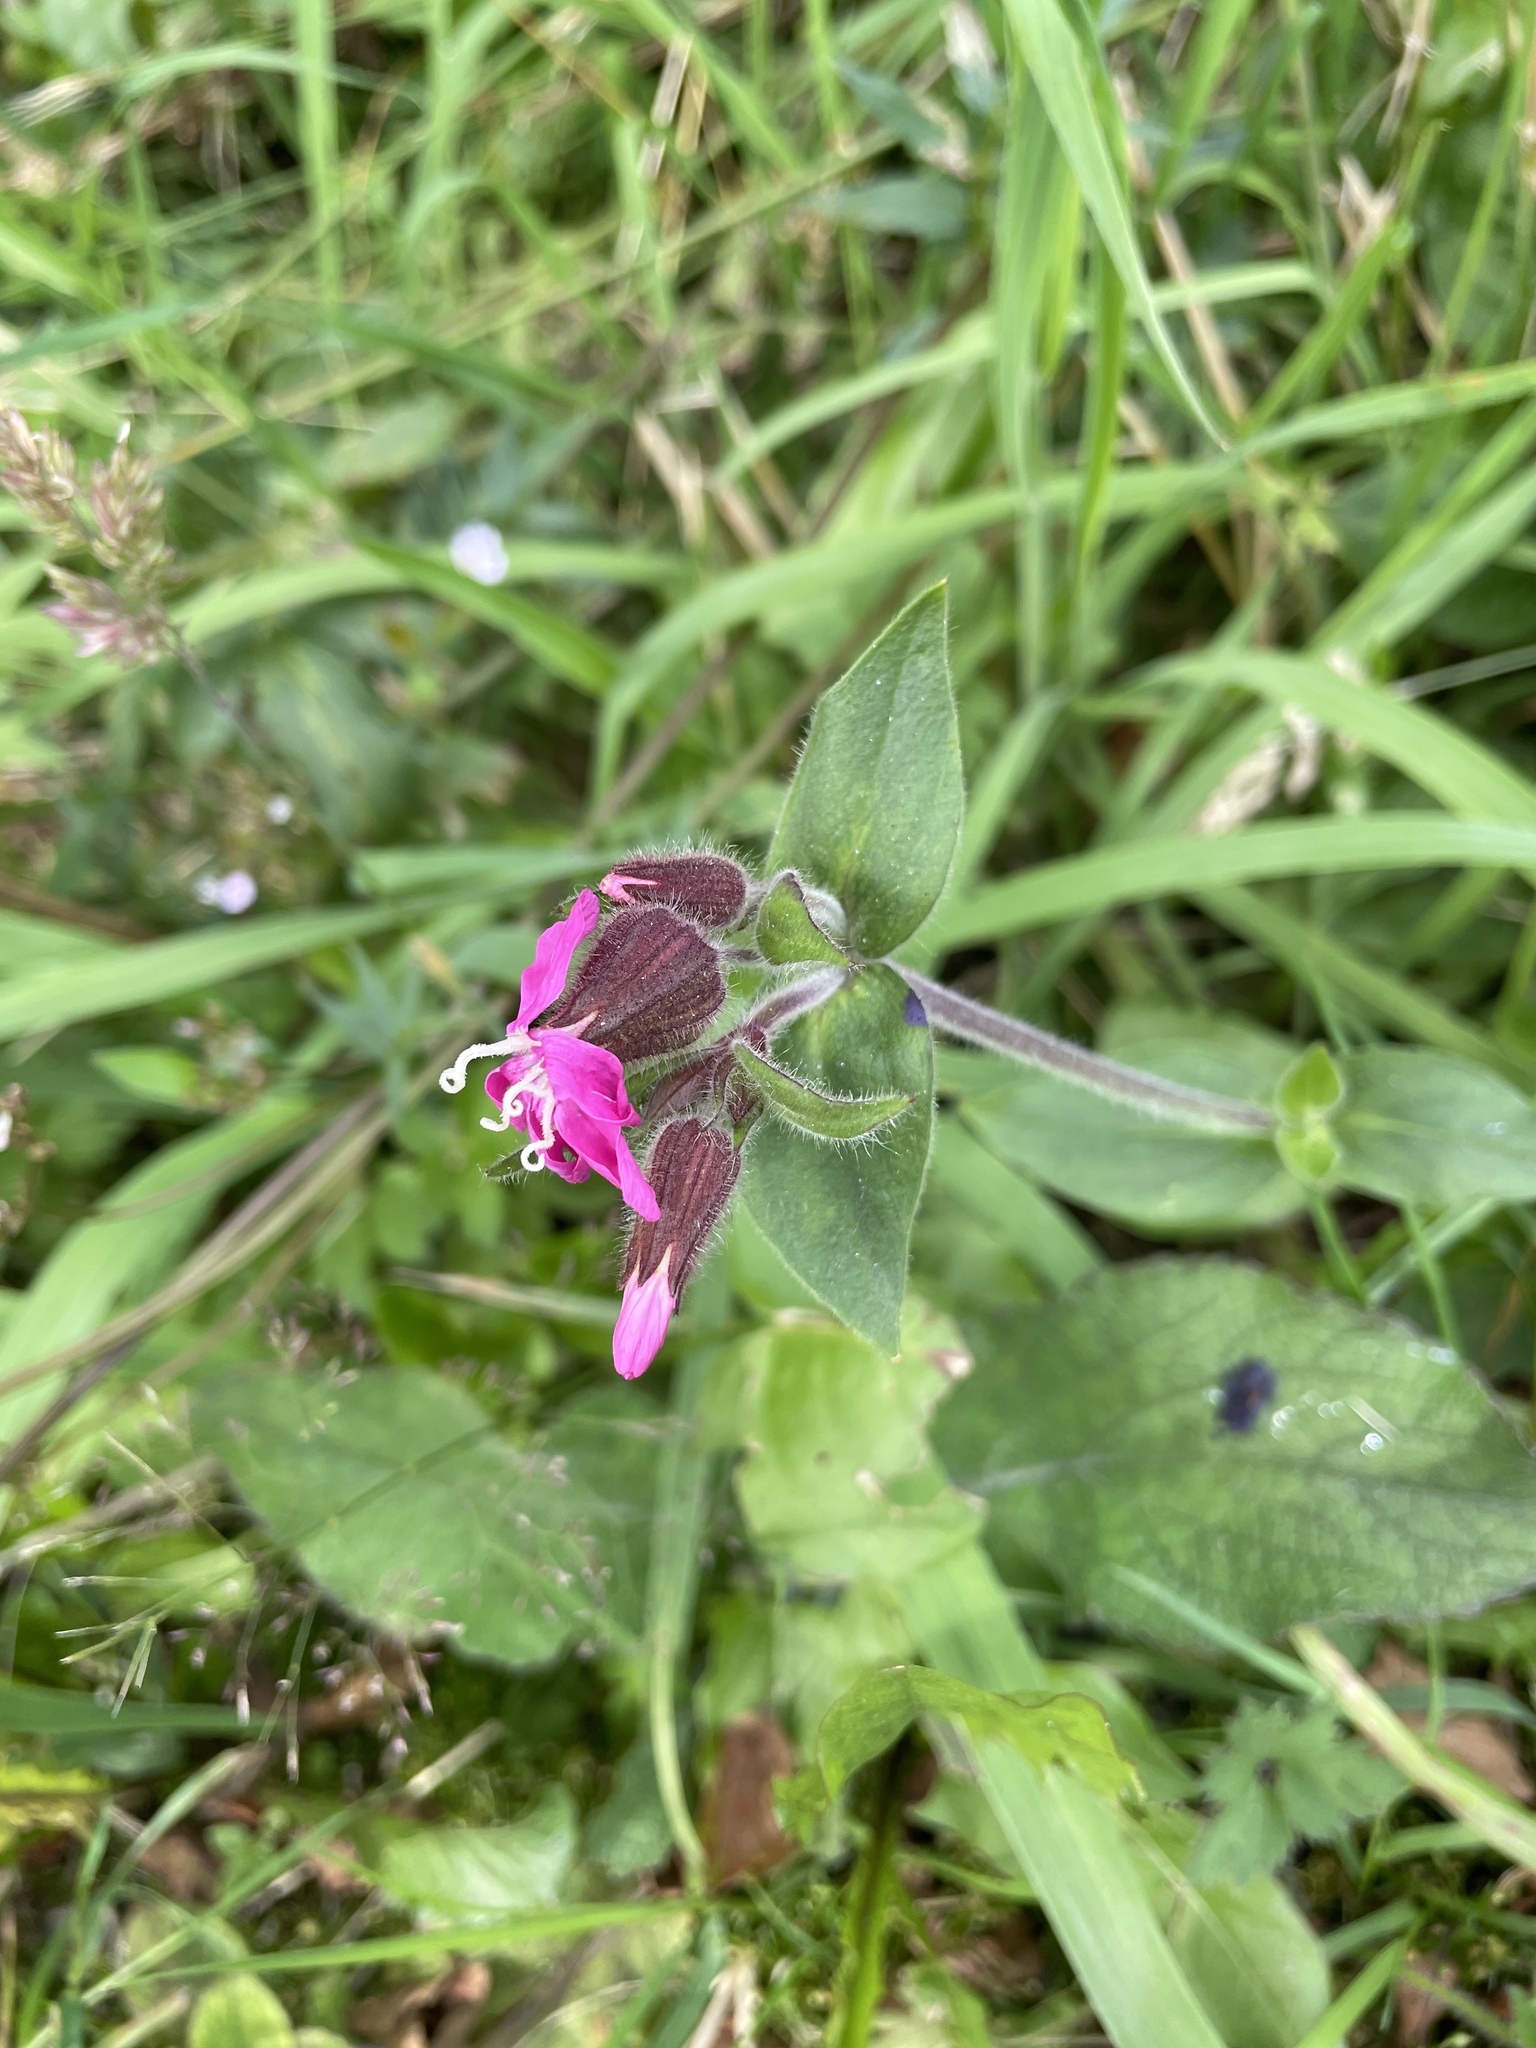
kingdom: Plantae
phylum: Tracheophyta
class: Magnoliopsida
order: Caryophyllales
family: Caryophyllaceae
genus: Silene
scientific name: Silene dioica
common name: Red campion
